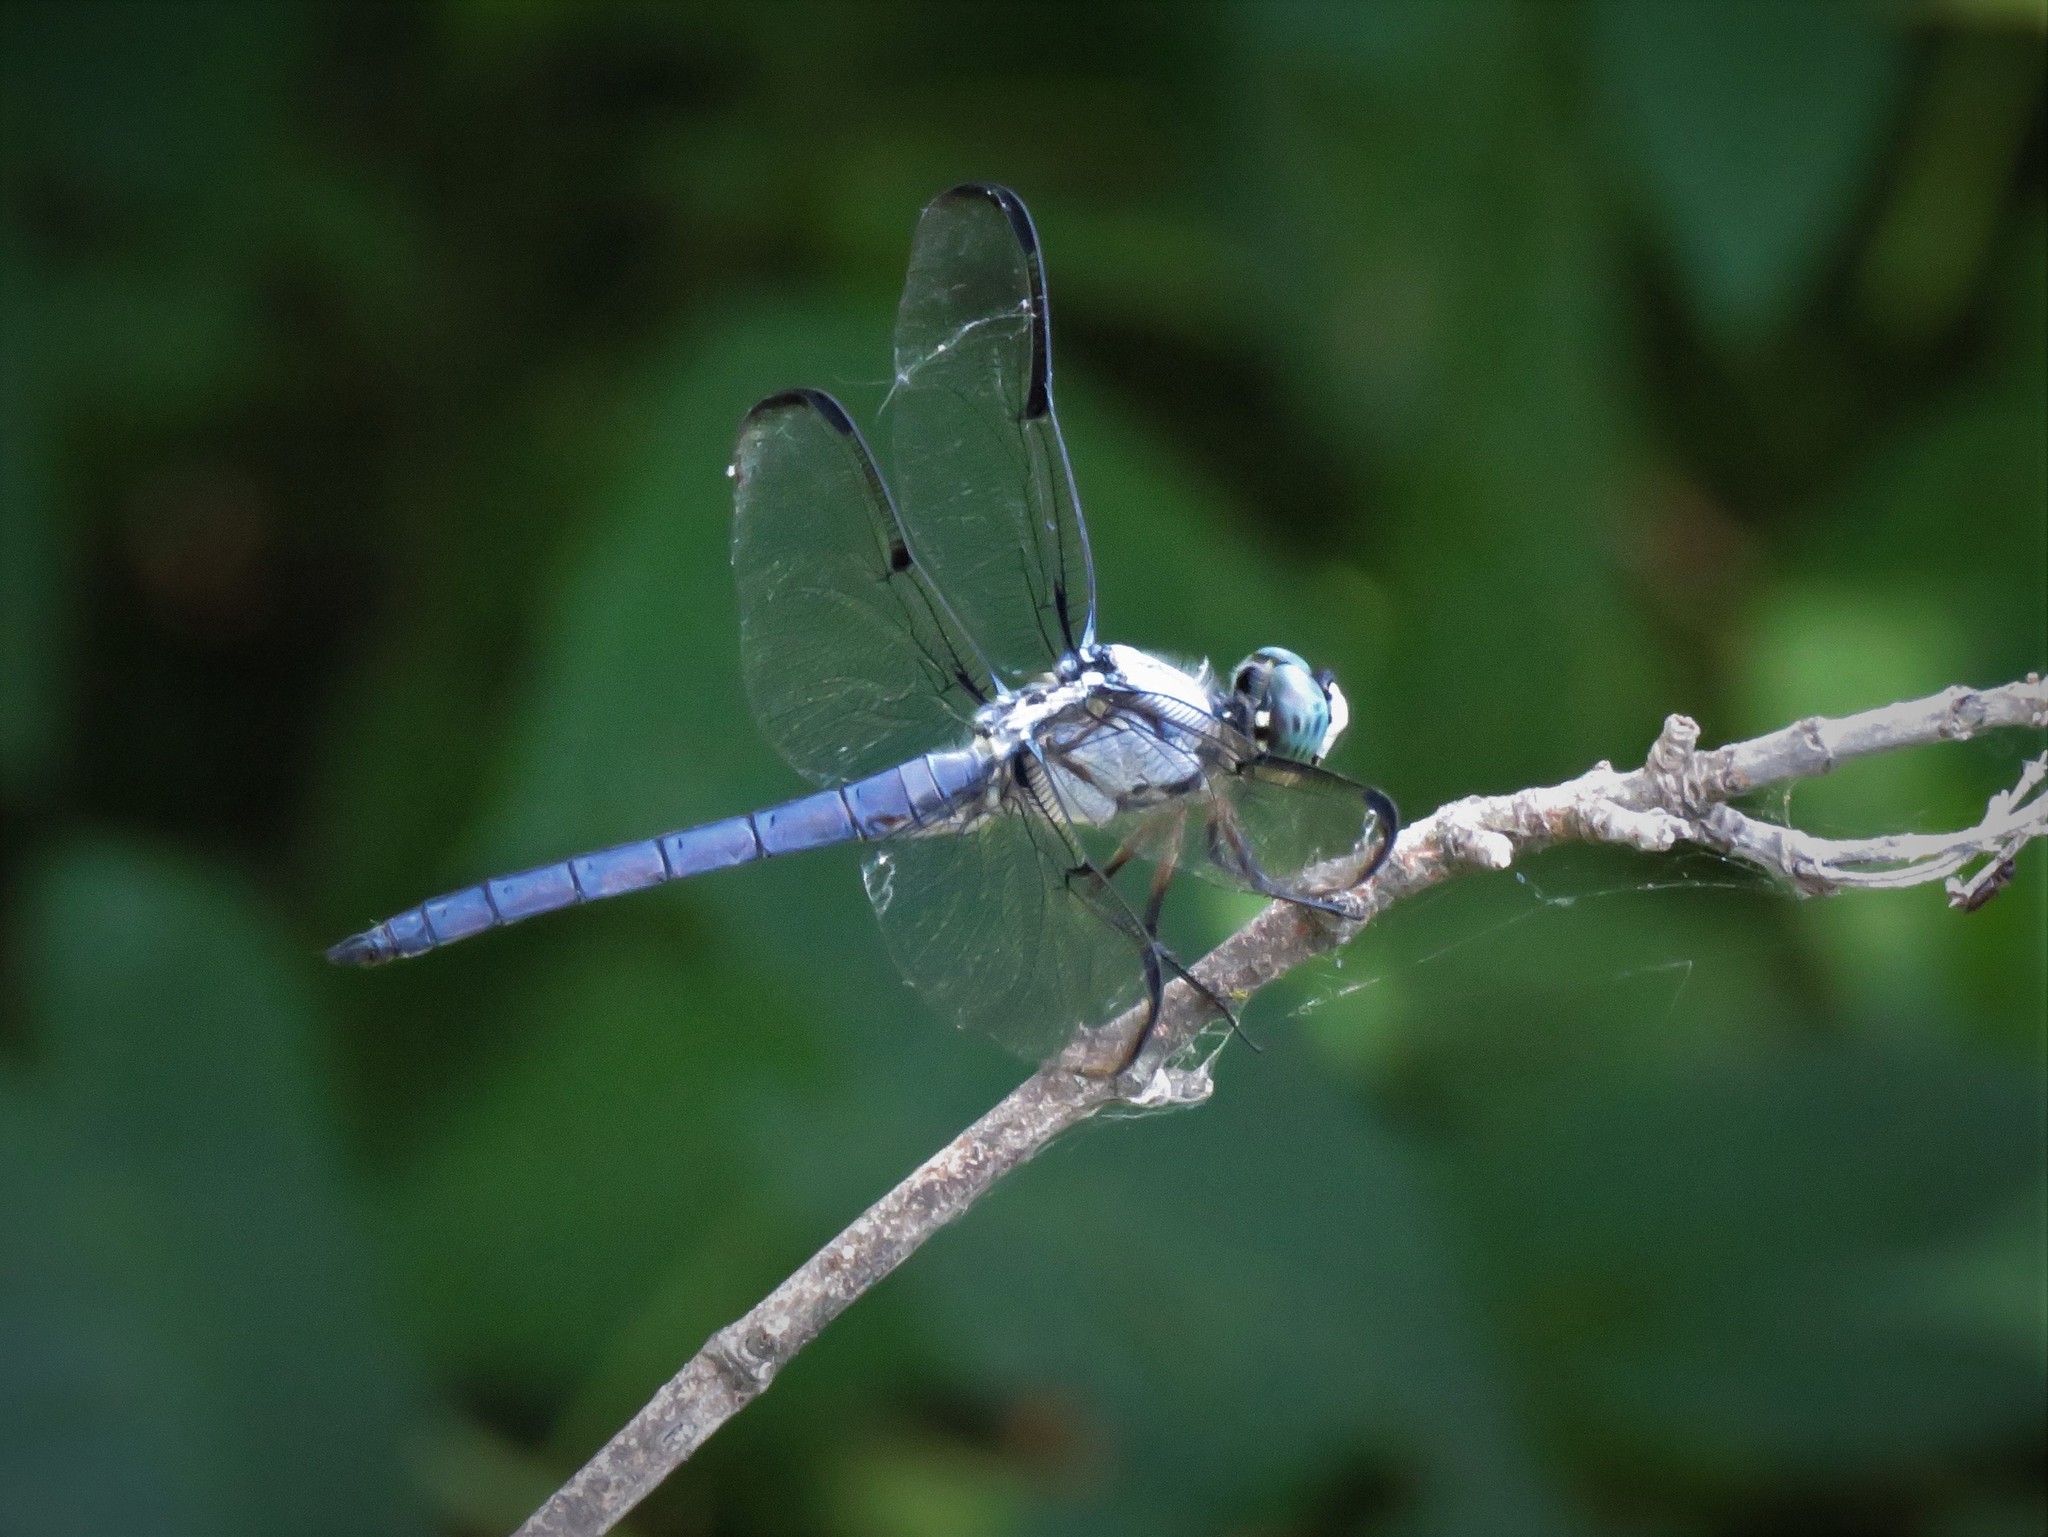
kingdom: Animalia
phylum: Arthropoda
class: Insecta
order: Odonata
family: Libellulidae
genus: Libellula
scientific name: Libellula vibrans
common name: Great blue skimmer
